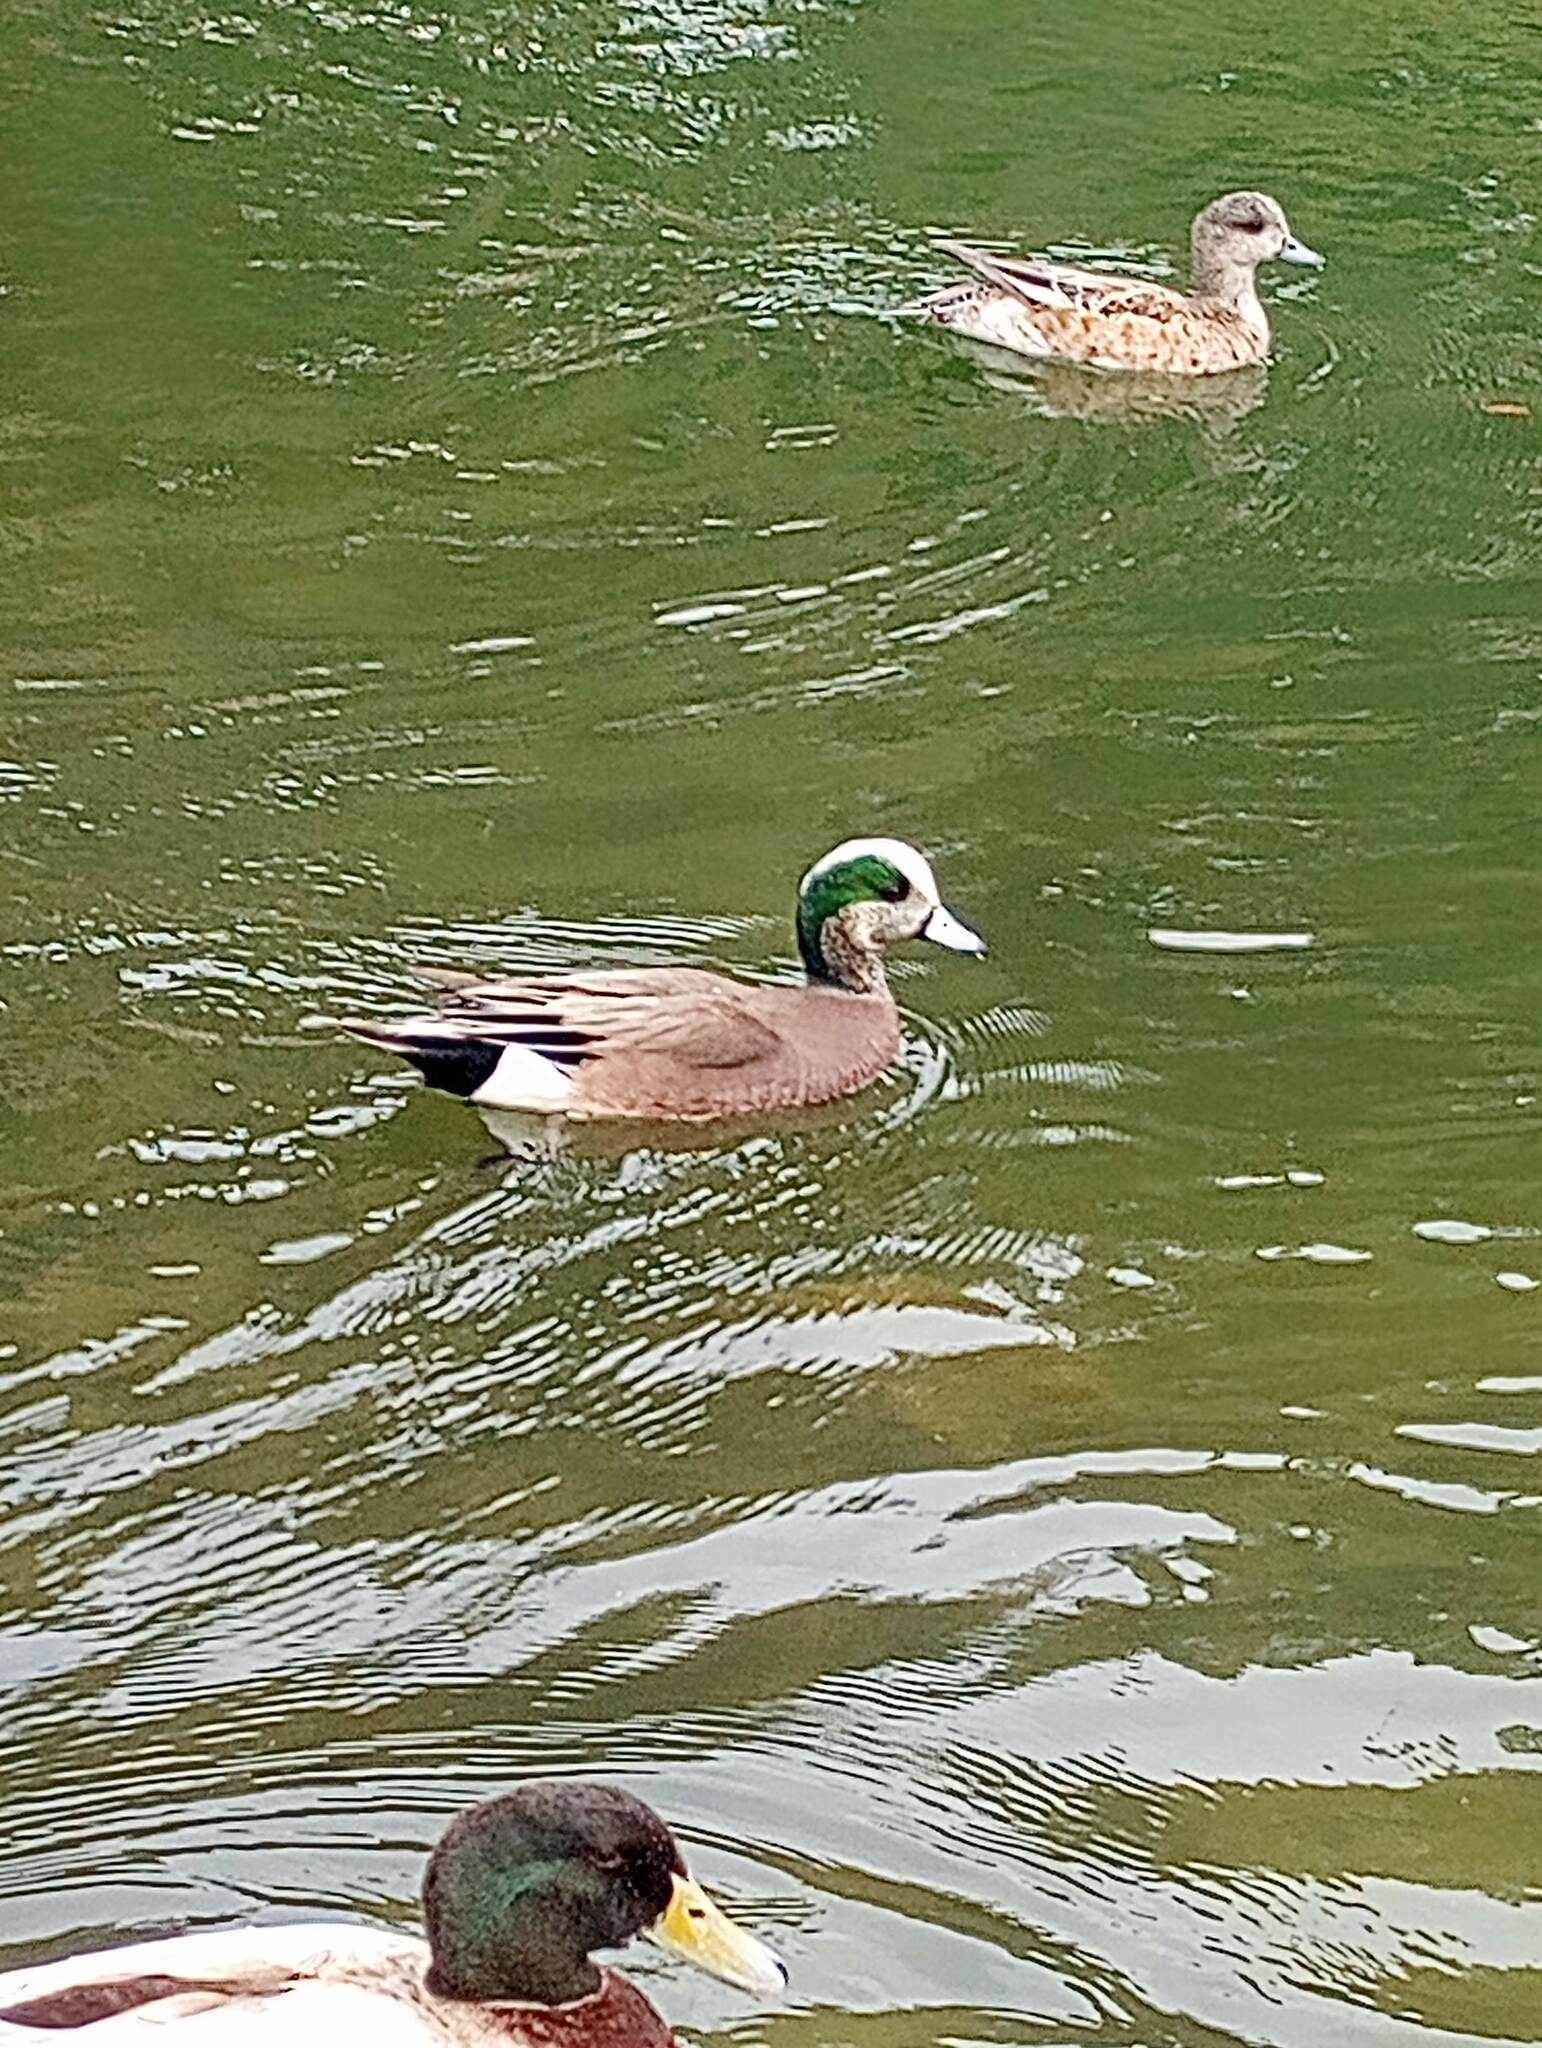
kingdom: Animalia
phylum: Chordata
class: Aves
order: Anseriformes
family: Anatidae
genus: Mareca
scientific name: Mareca americana
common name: American wigeon
